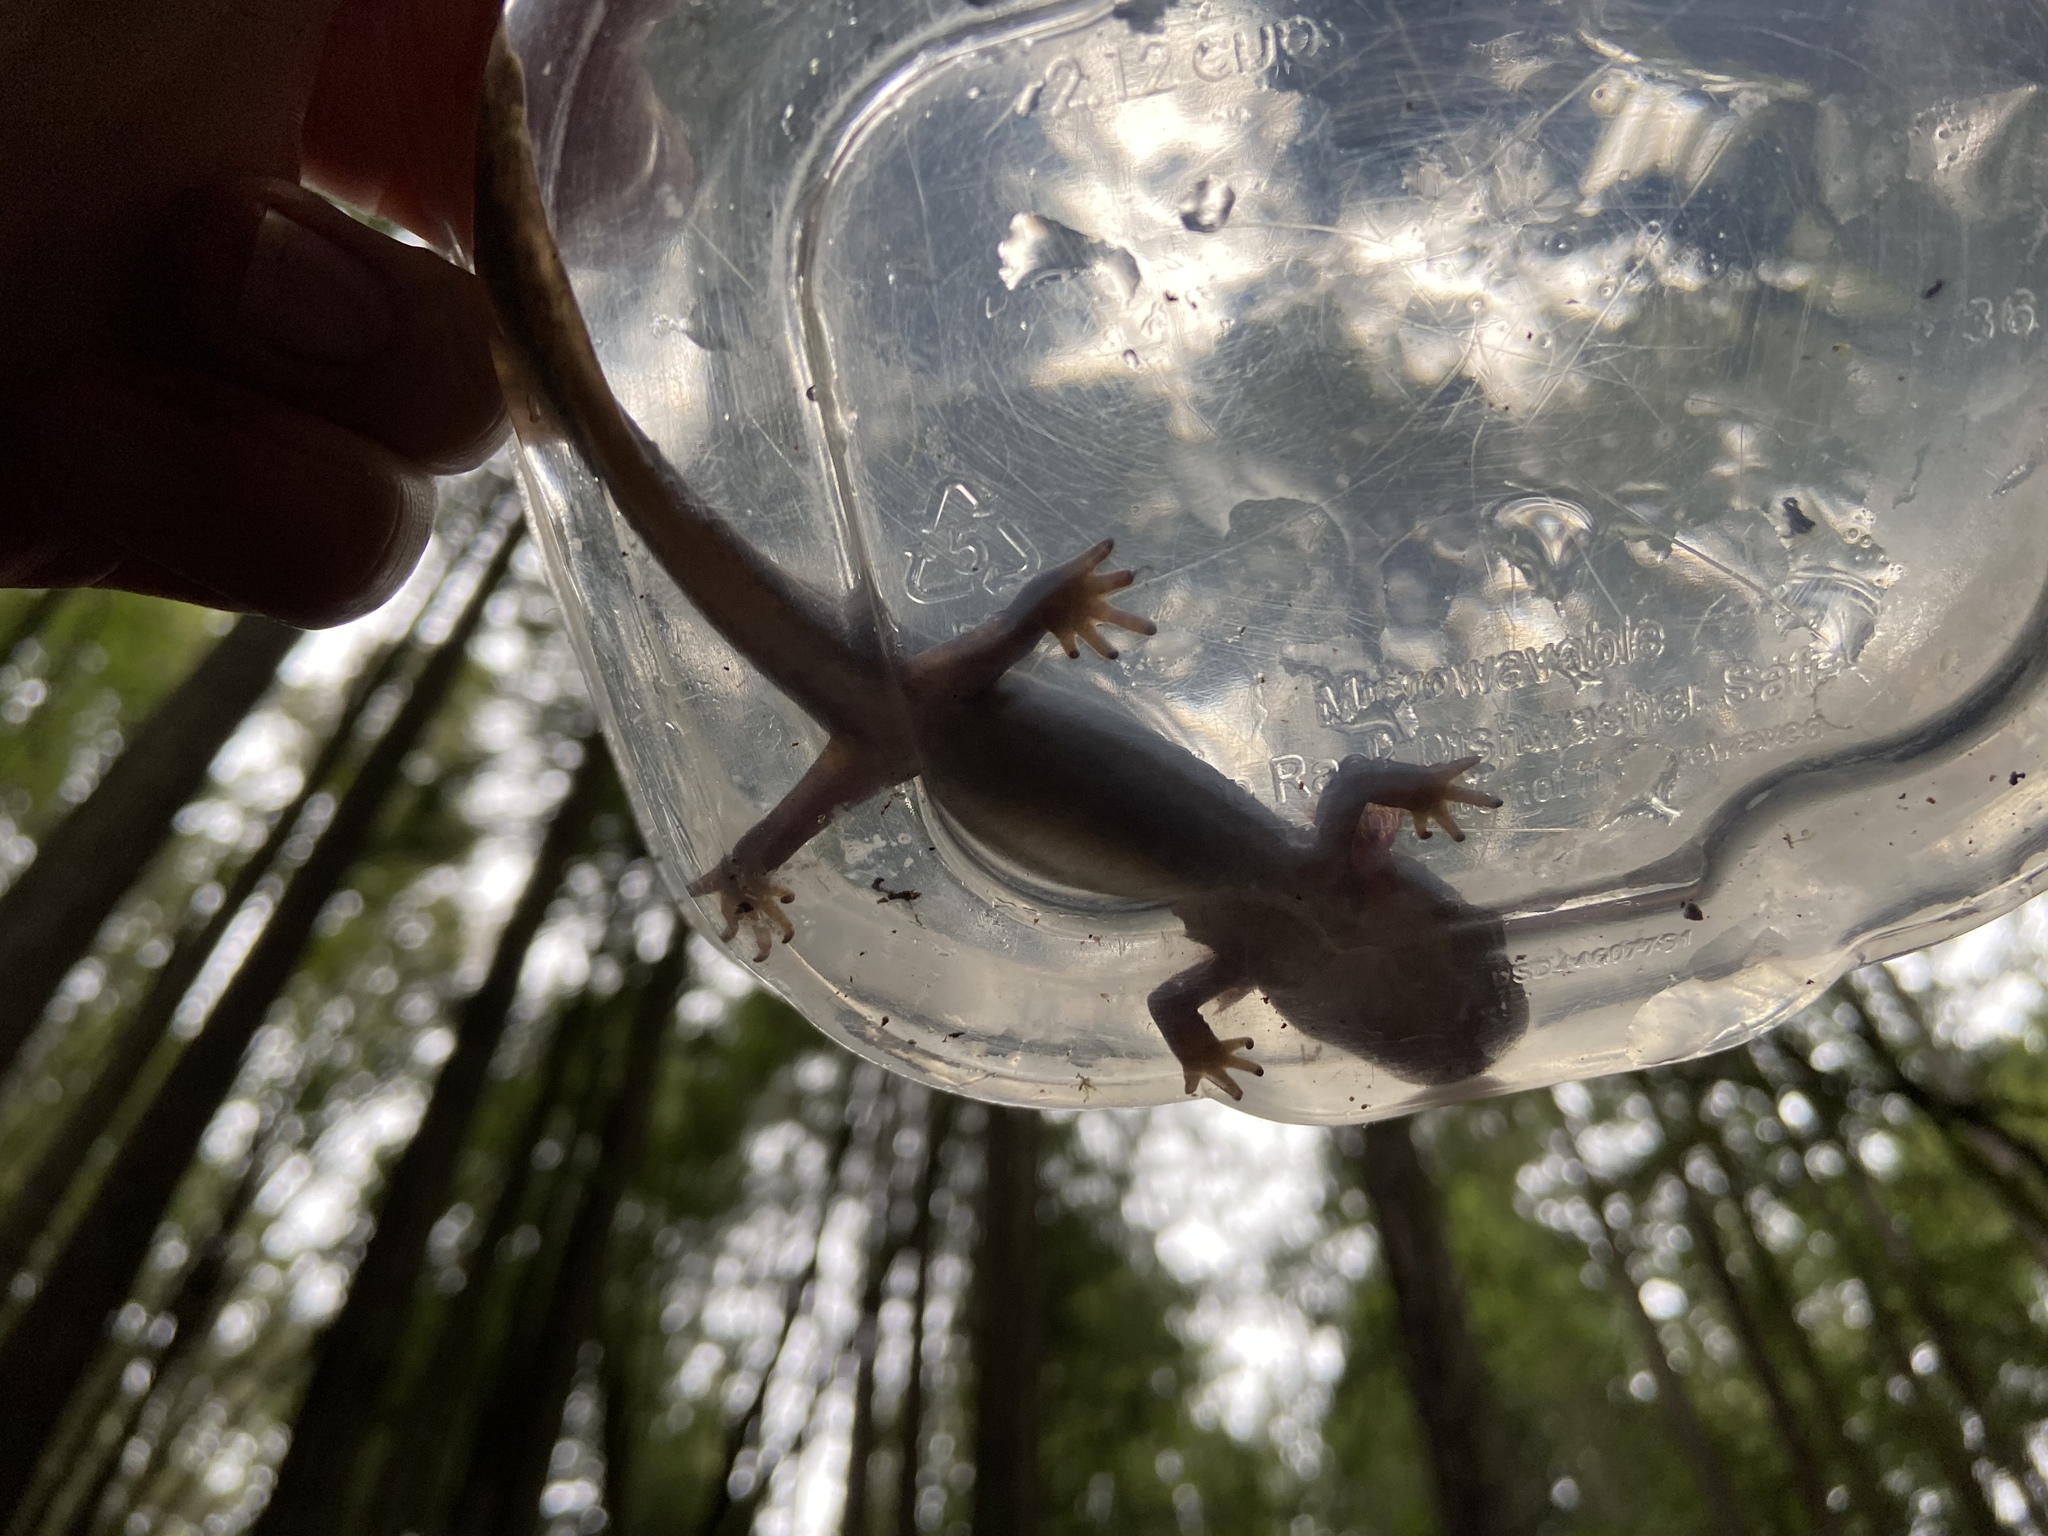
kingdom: Animalia
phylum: Chordata
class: Amphibia
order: Caudata
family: Ambystomatidae
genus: Dicamptodon
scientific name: Dicamptodon ensatus
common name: California giant salamander
